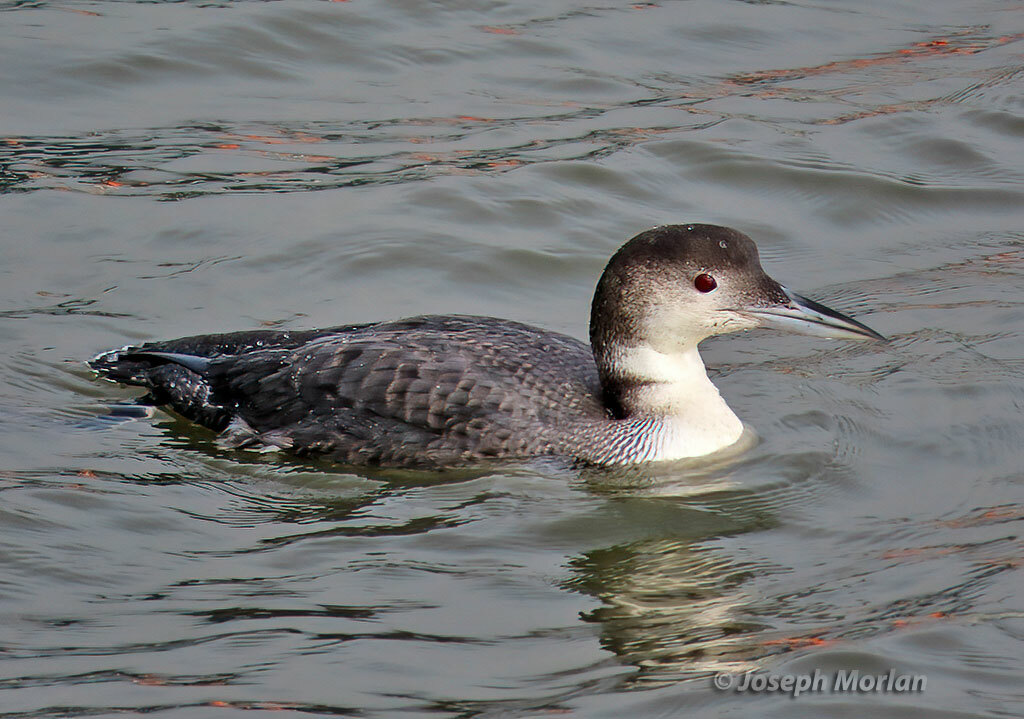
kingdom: Animalia
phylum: Chordata
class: Aves
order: Gaviiformes
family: Gaviidae
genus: Gavia
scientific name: Gavia immer
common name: Common loon
